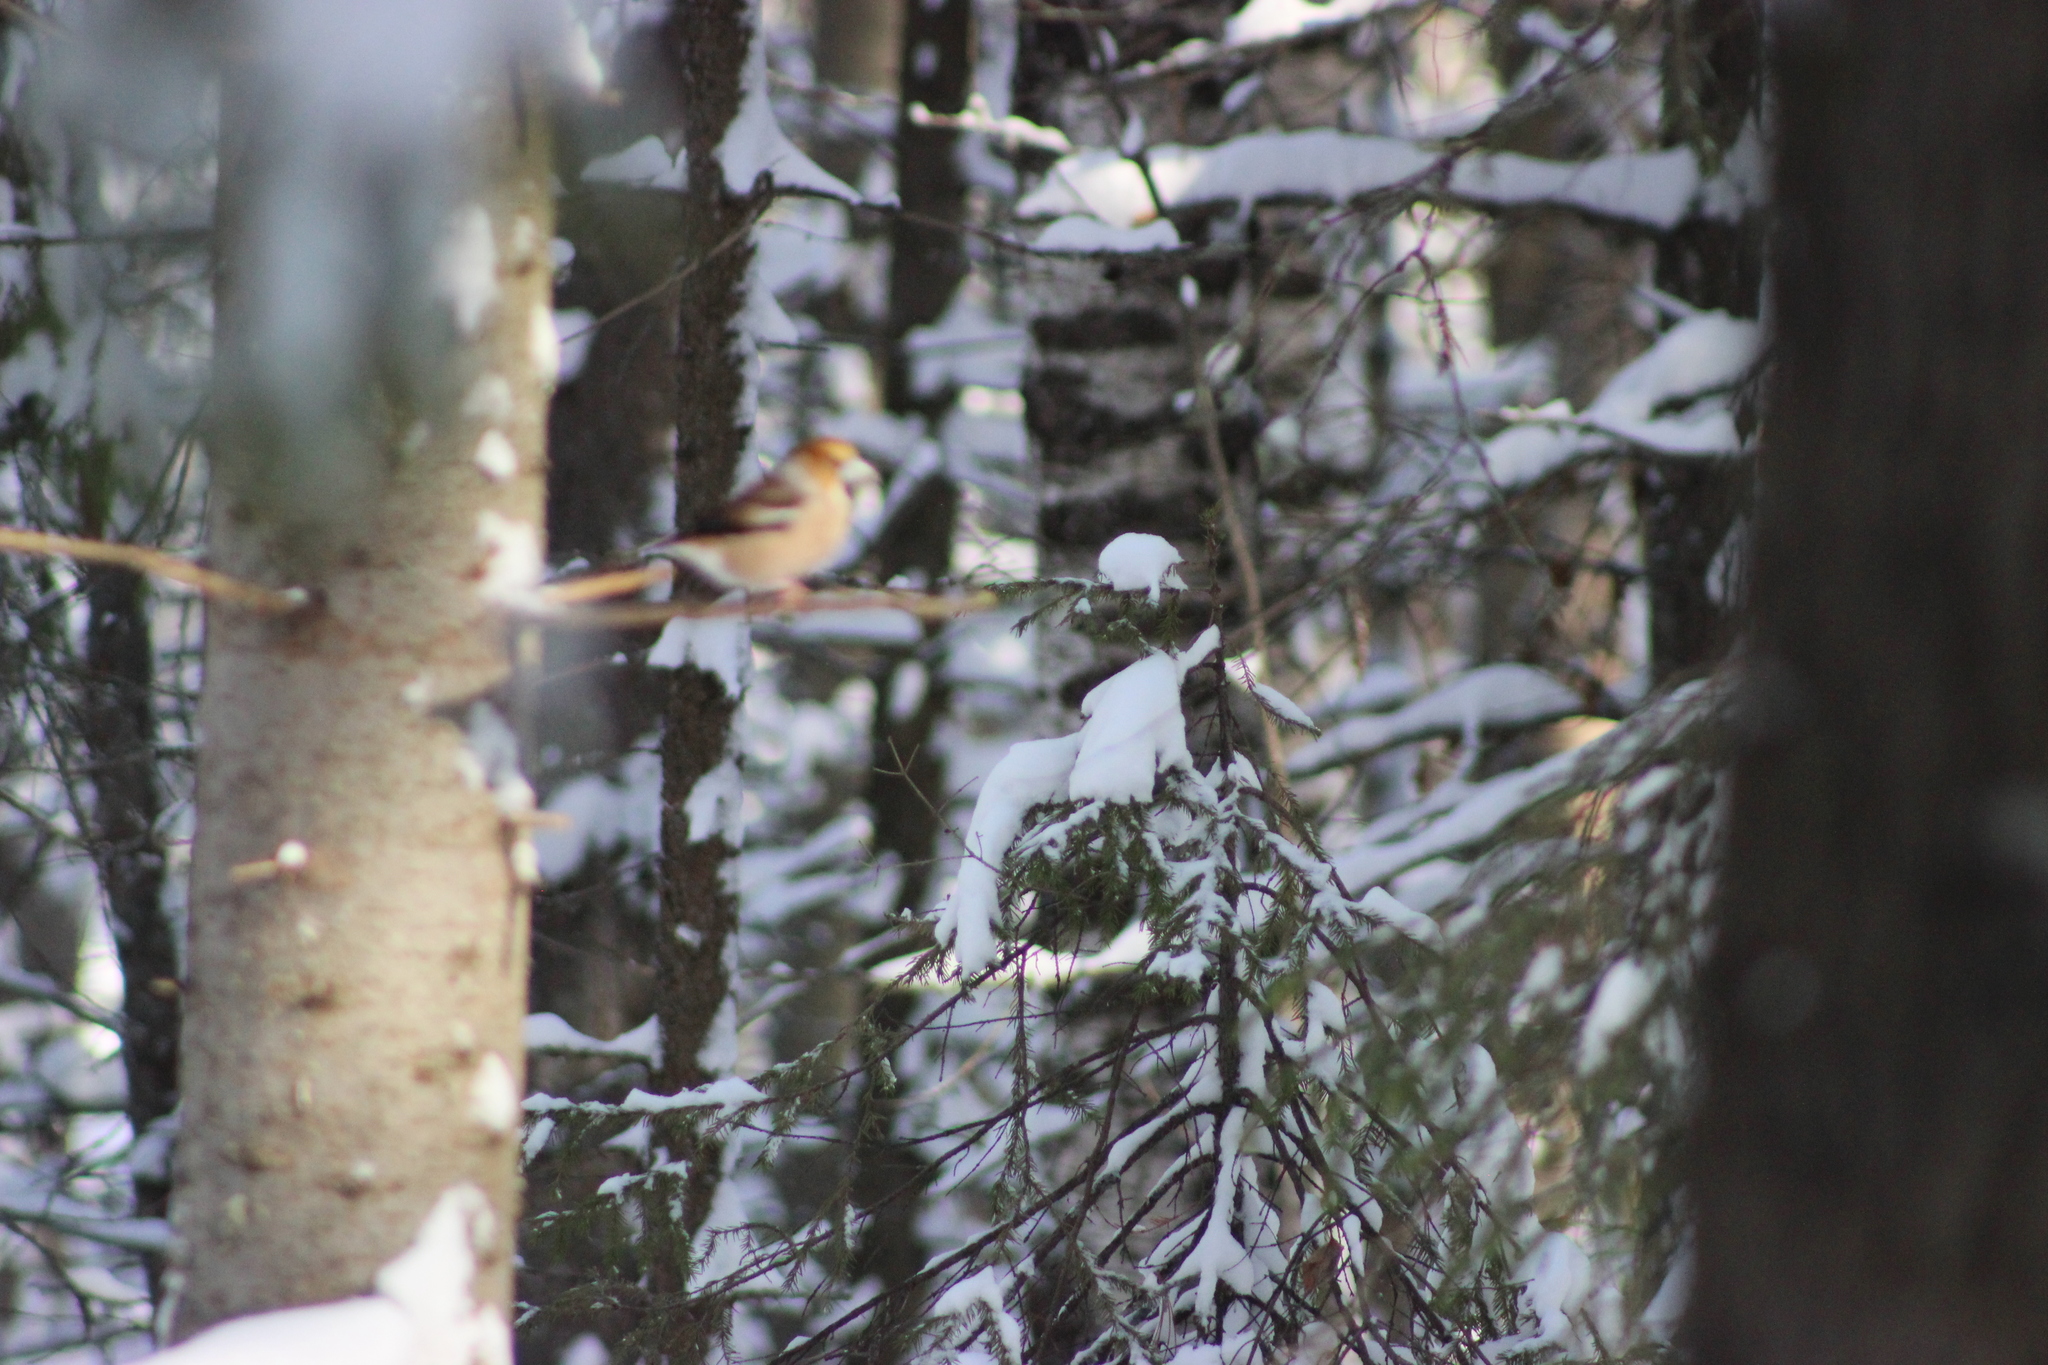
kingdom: Animalia
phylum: Chordata
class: Aves
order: Passeriformes
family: Fringillidae
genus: Coccothraustes
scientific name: Coccothraustes coccothraustes
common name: Hawfinch
